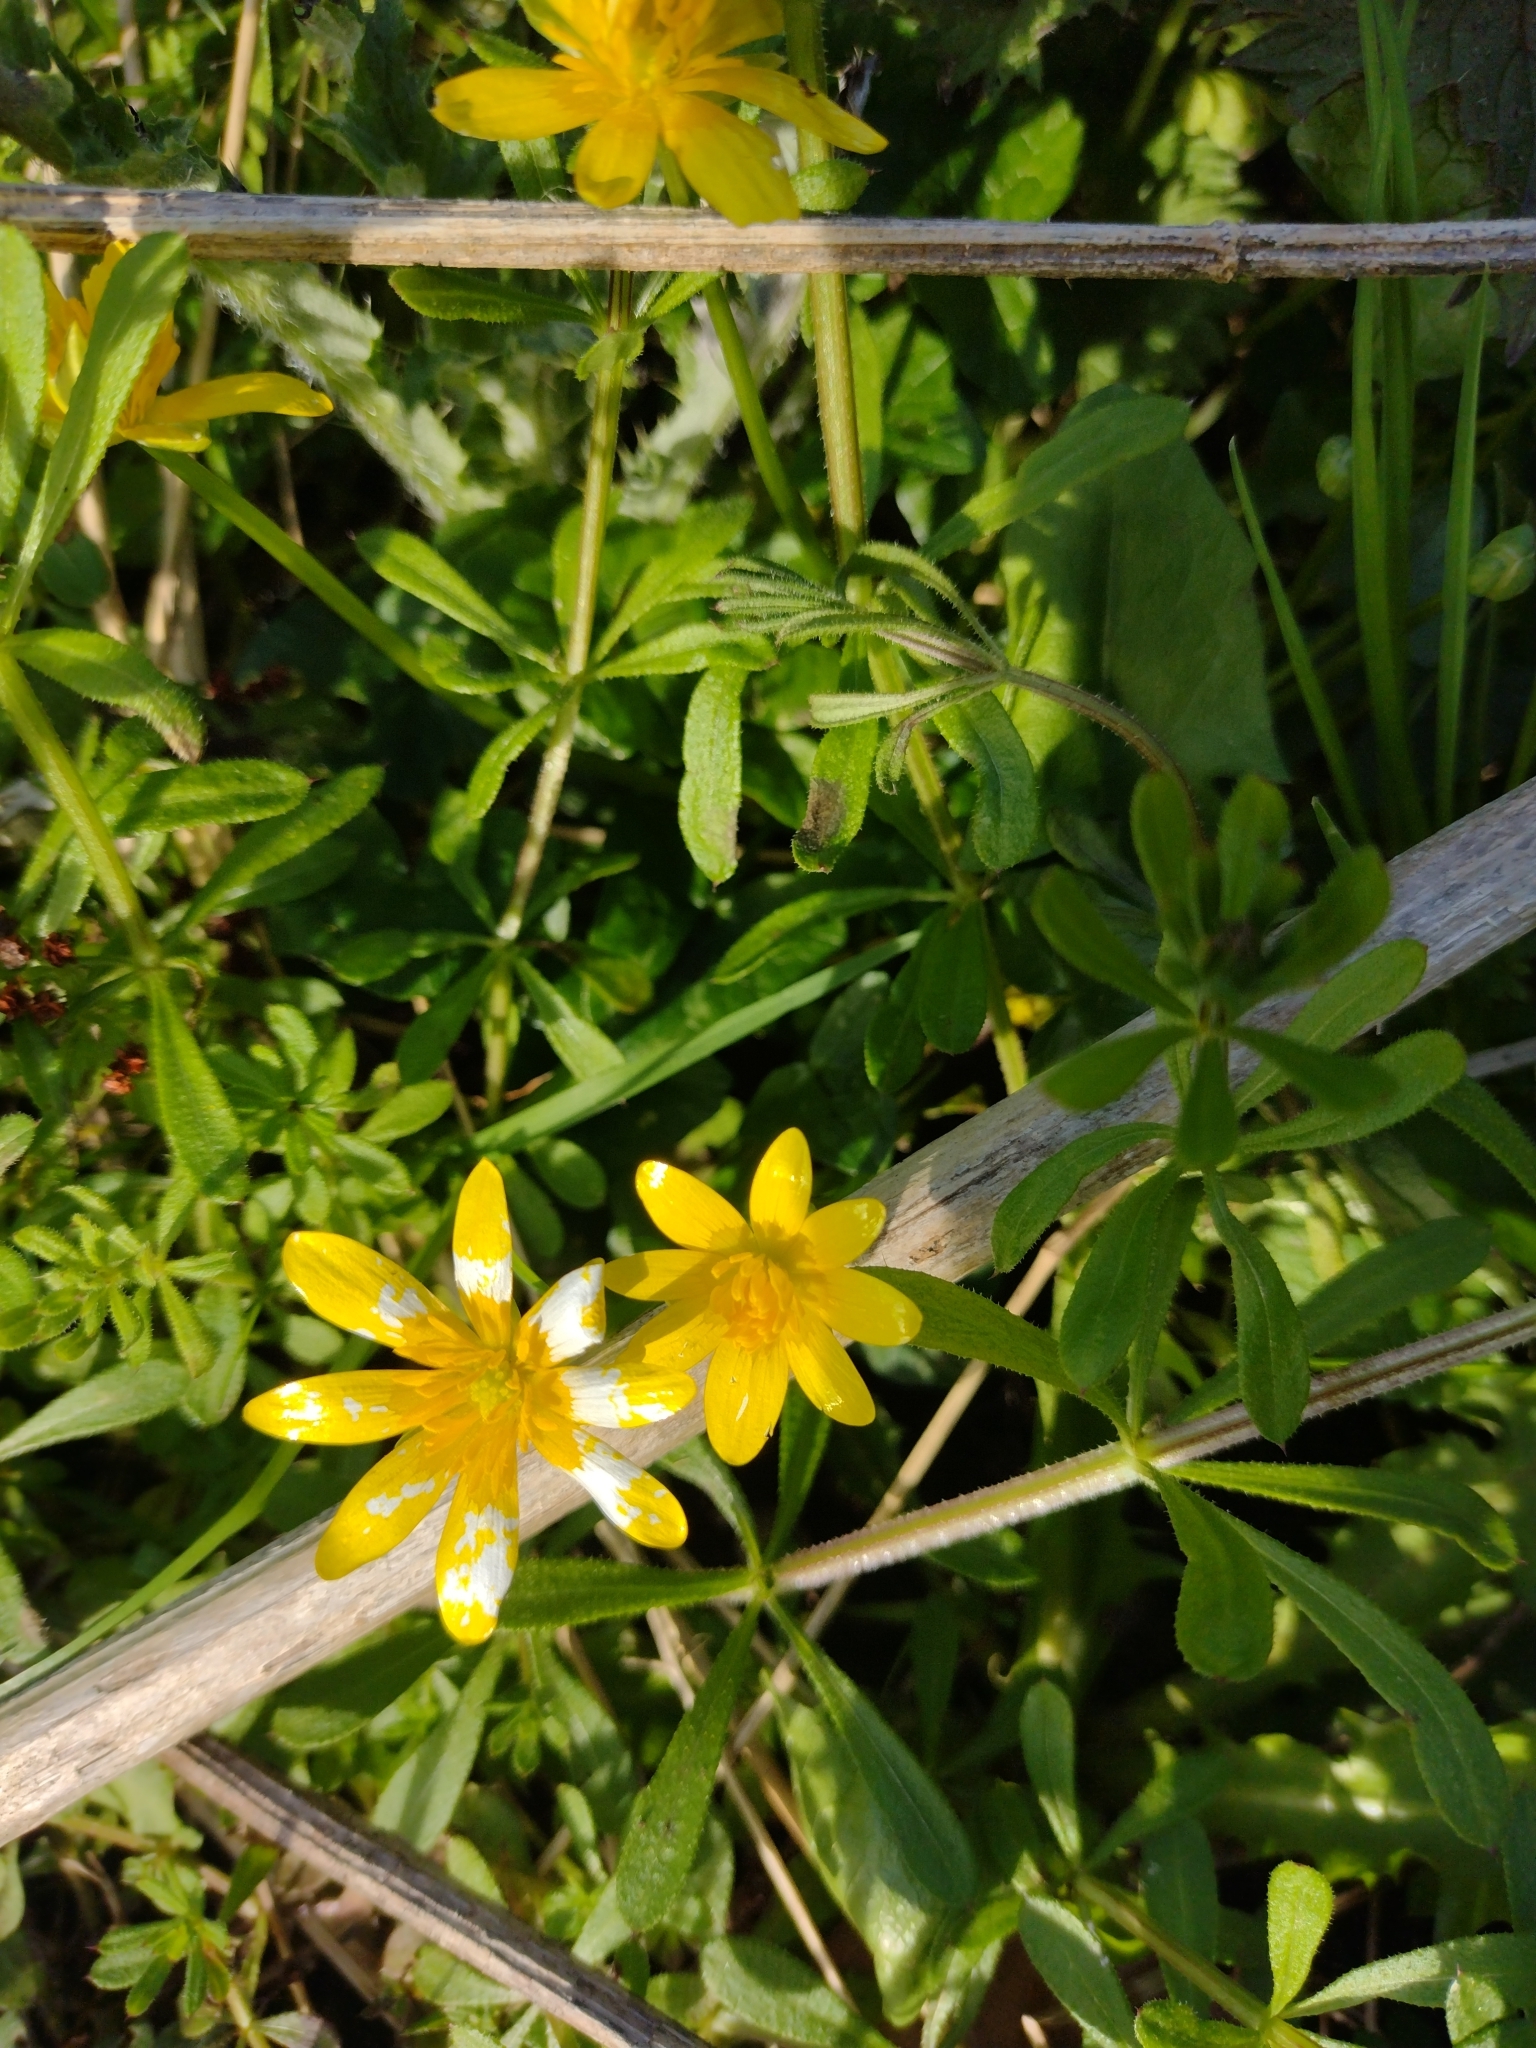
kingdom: Plantae
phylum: Tracheophyta
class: Magnoliopsida
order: Ranunculales
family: Ranunculaceae
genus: Ficaria
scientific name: Ficaria verna
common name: Lesser celandine
